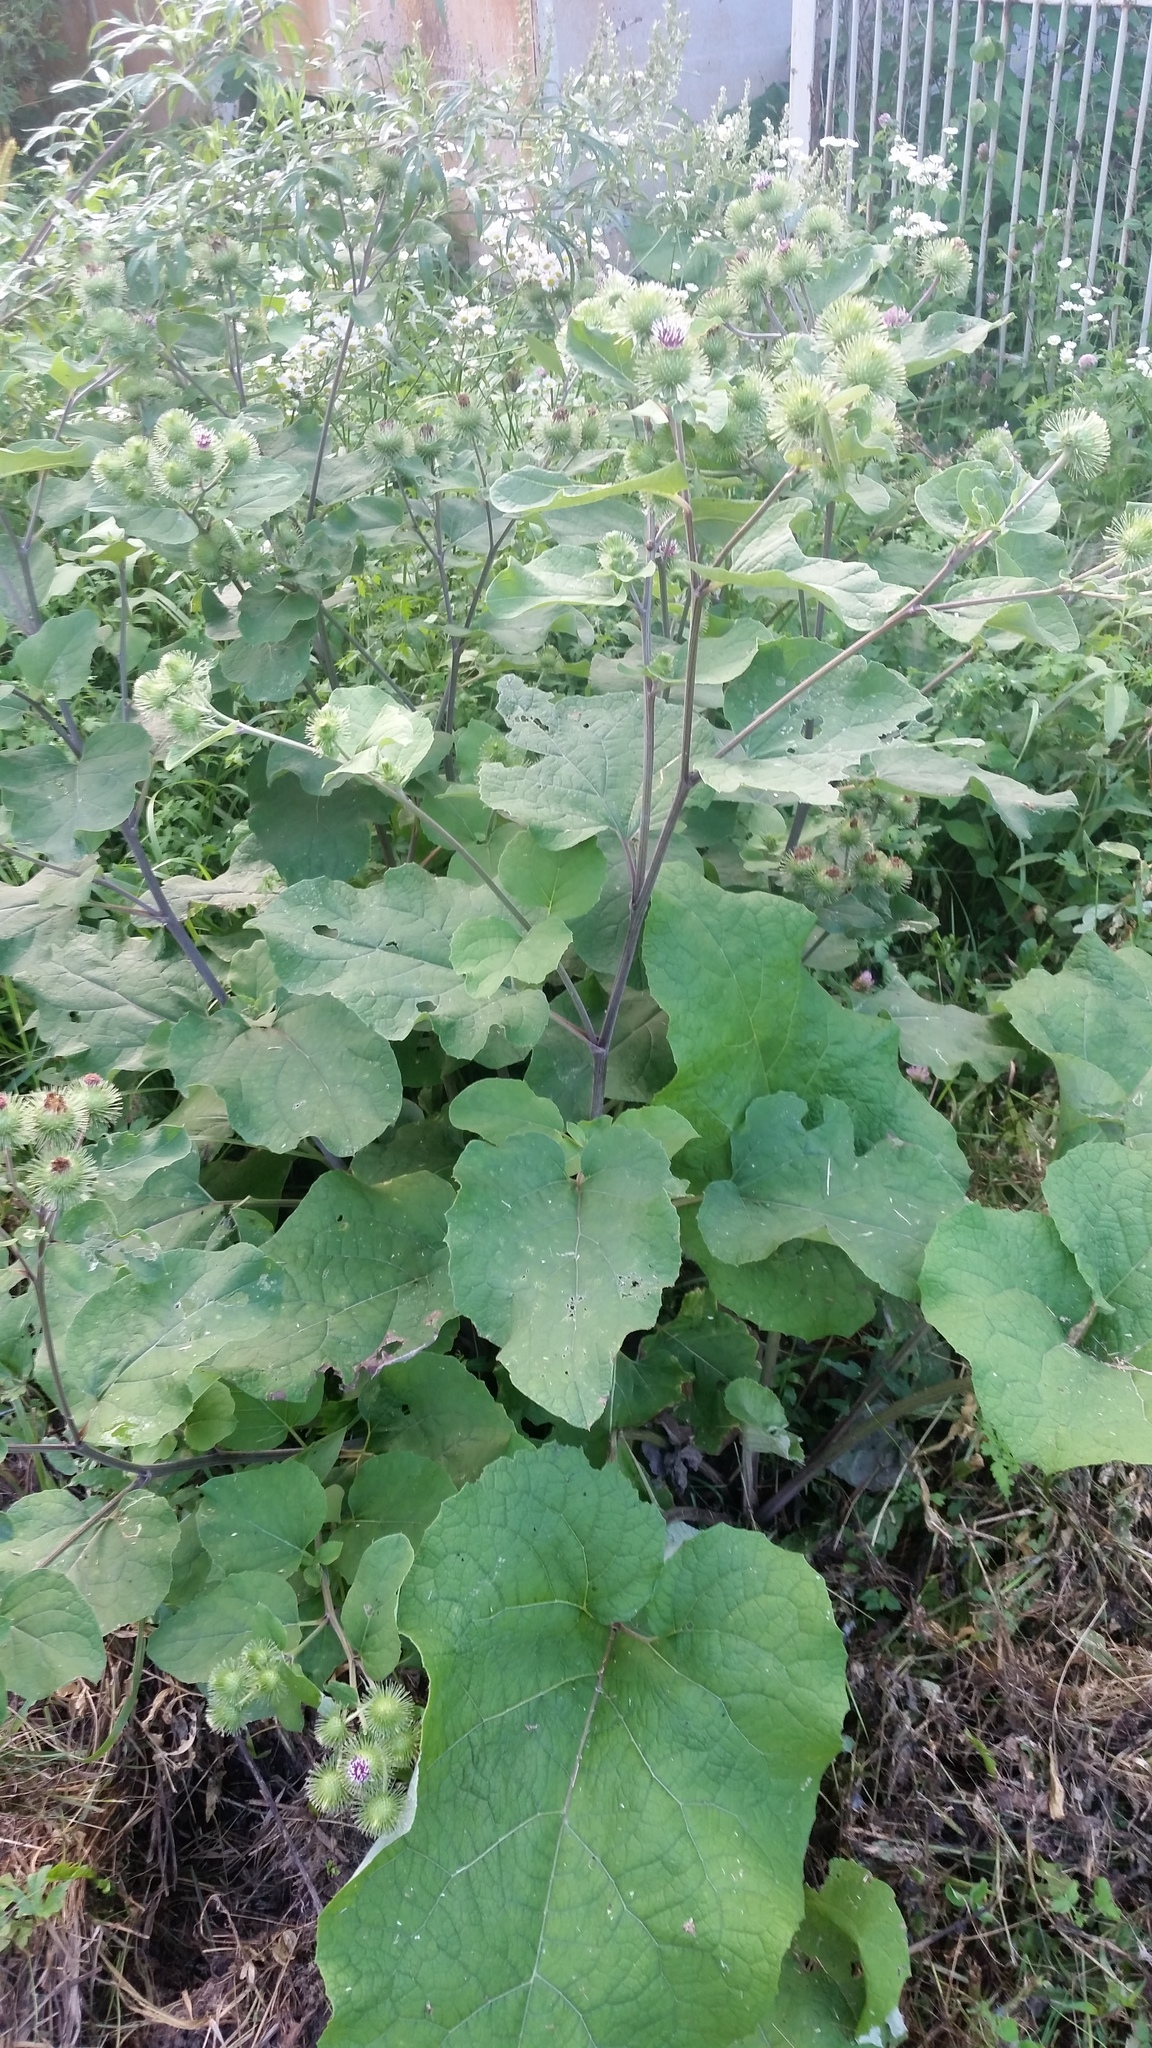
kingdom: Plantae
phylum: Tracheophyta
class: Magnoliopsida
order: Asterales
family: Asteraceae
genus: Arctium
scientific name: Arctium lappa
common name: Greater burdock
